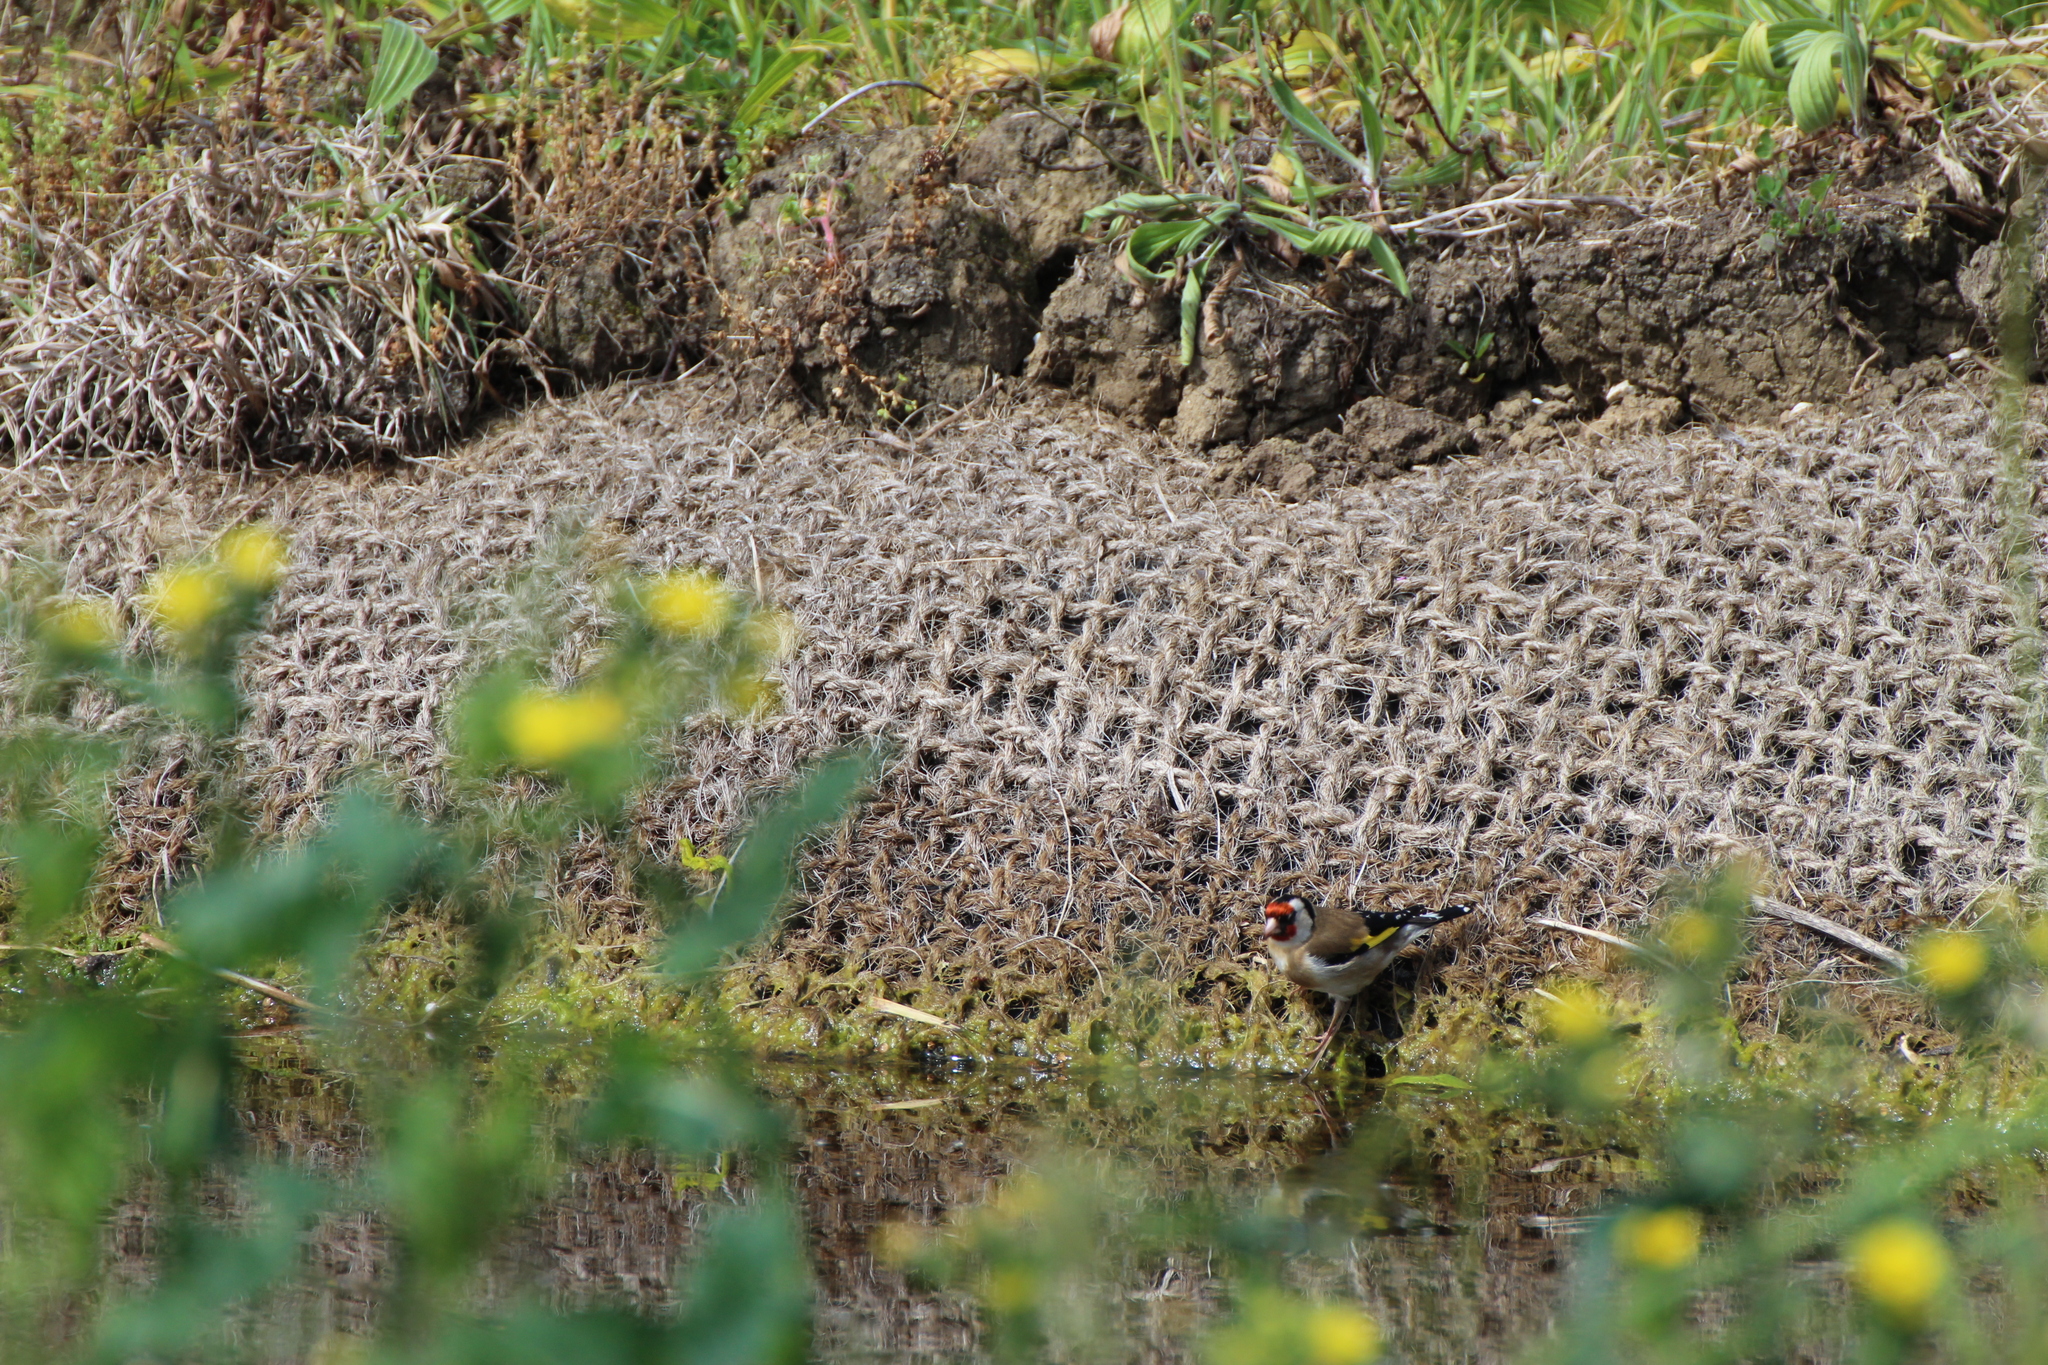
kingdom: Animalia
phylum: Chordata
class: Aves
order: Passeriformes
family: Fringillidae
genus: Carduelis
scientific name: Carduelis carduelis
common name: European goldfinch
